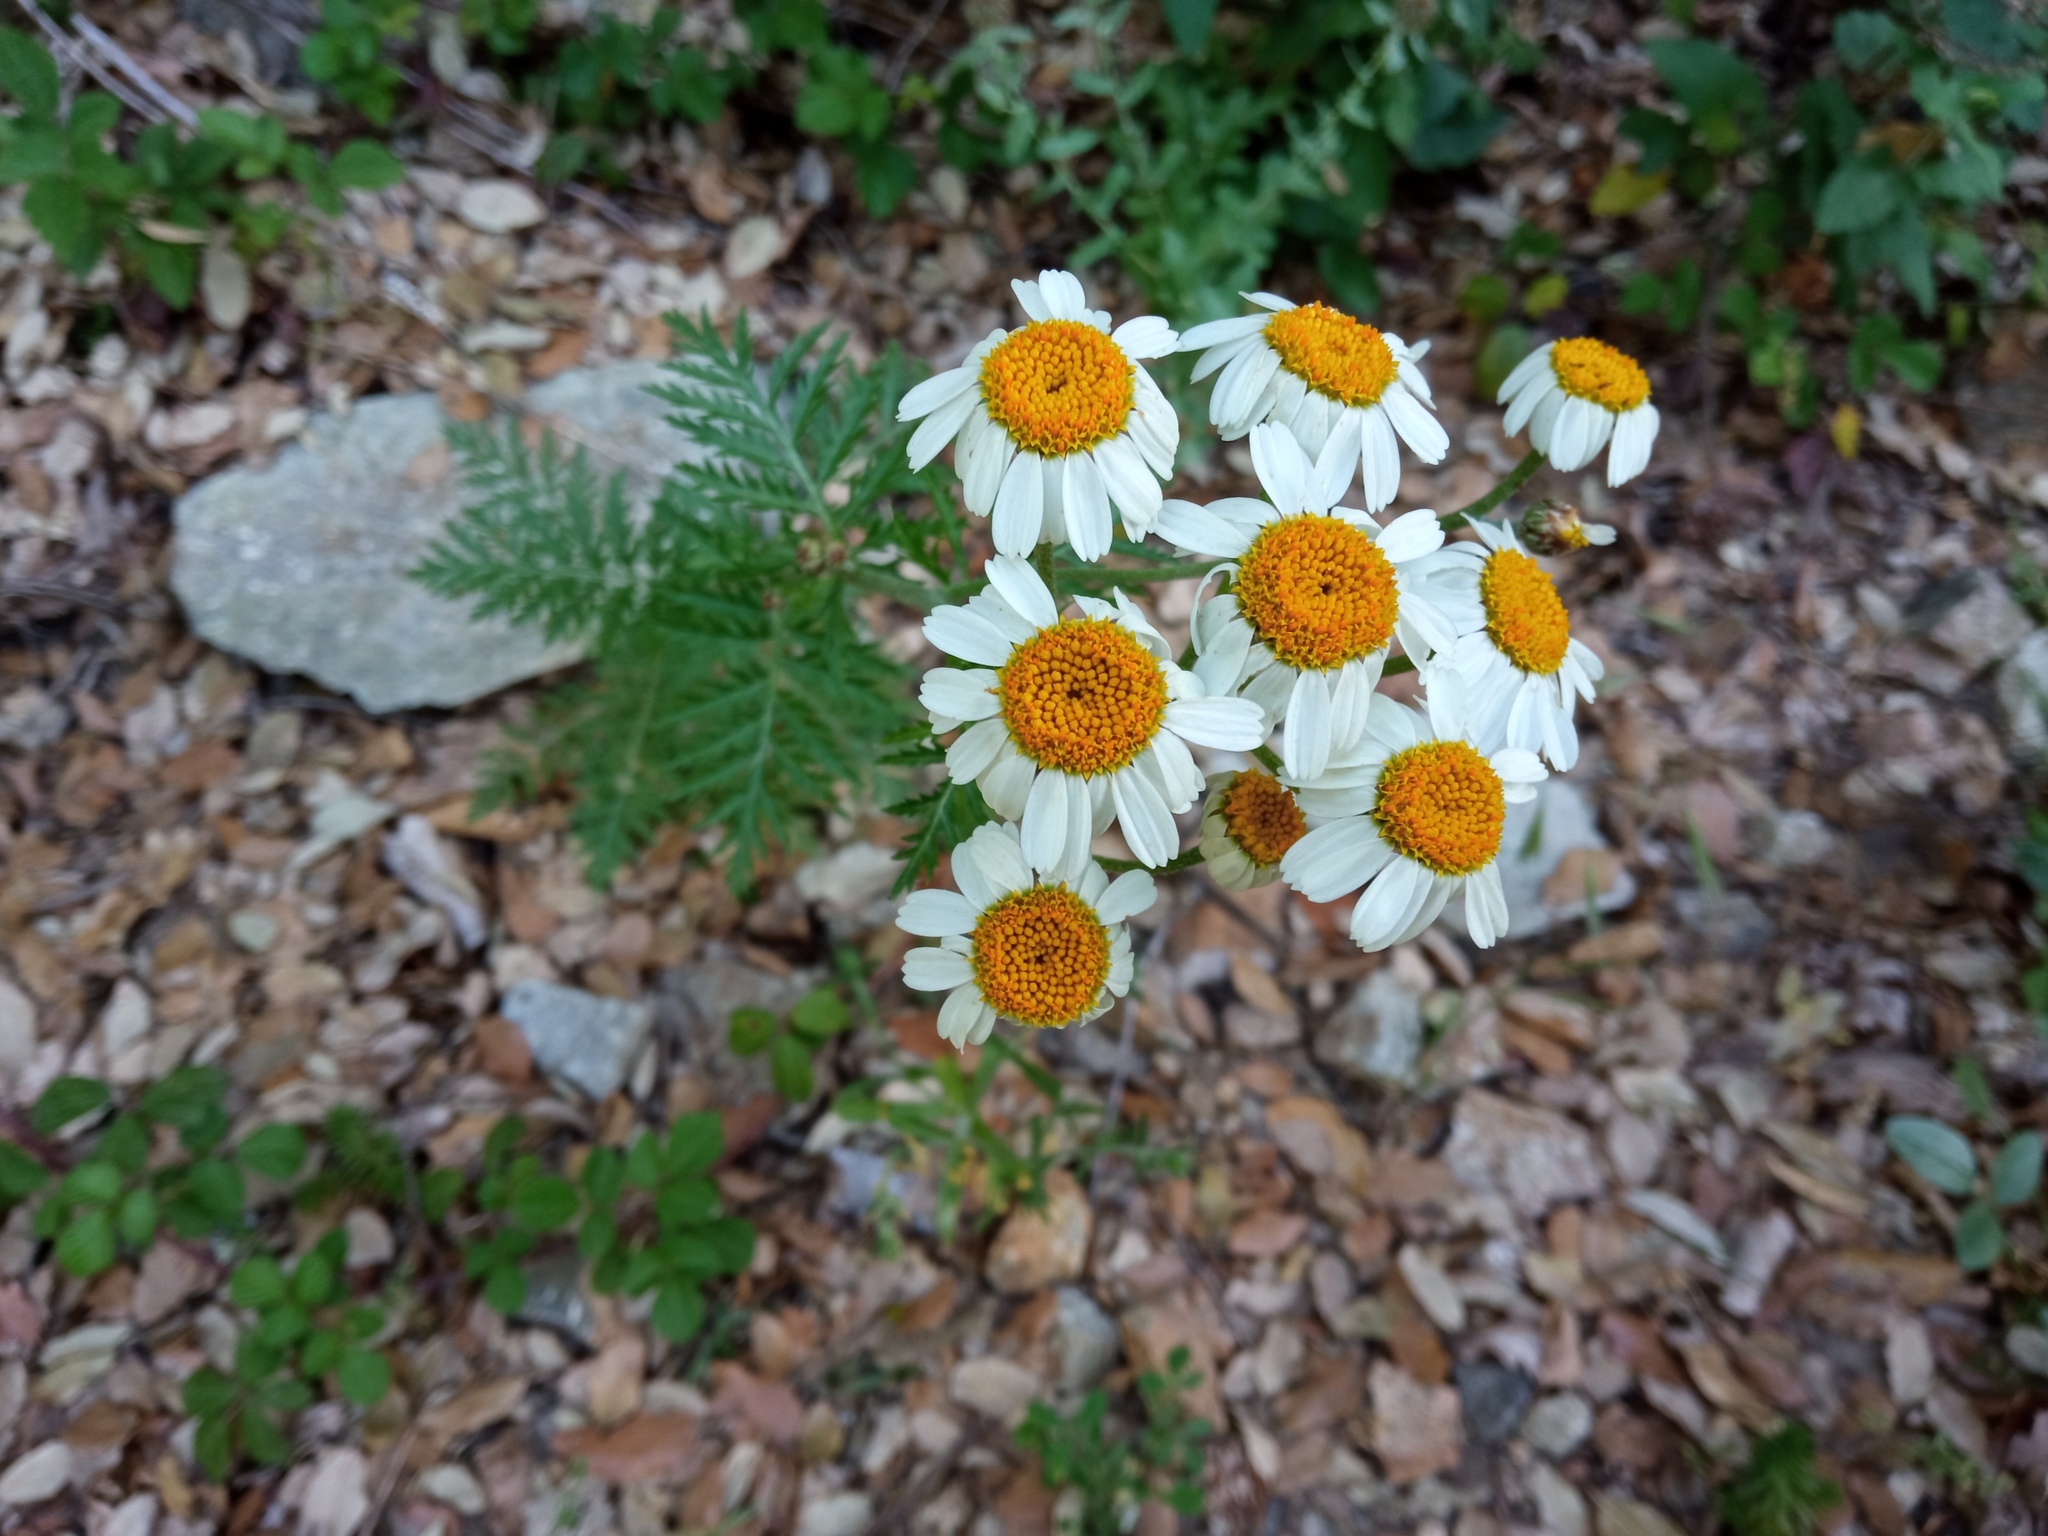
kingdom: Plantae
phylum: Tracheophyta
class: Magnoliopsida
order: Asterales
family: Asteraceae
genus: Tanacetum
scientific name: Tanacetum corymbosum
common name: Scentless feverfew
